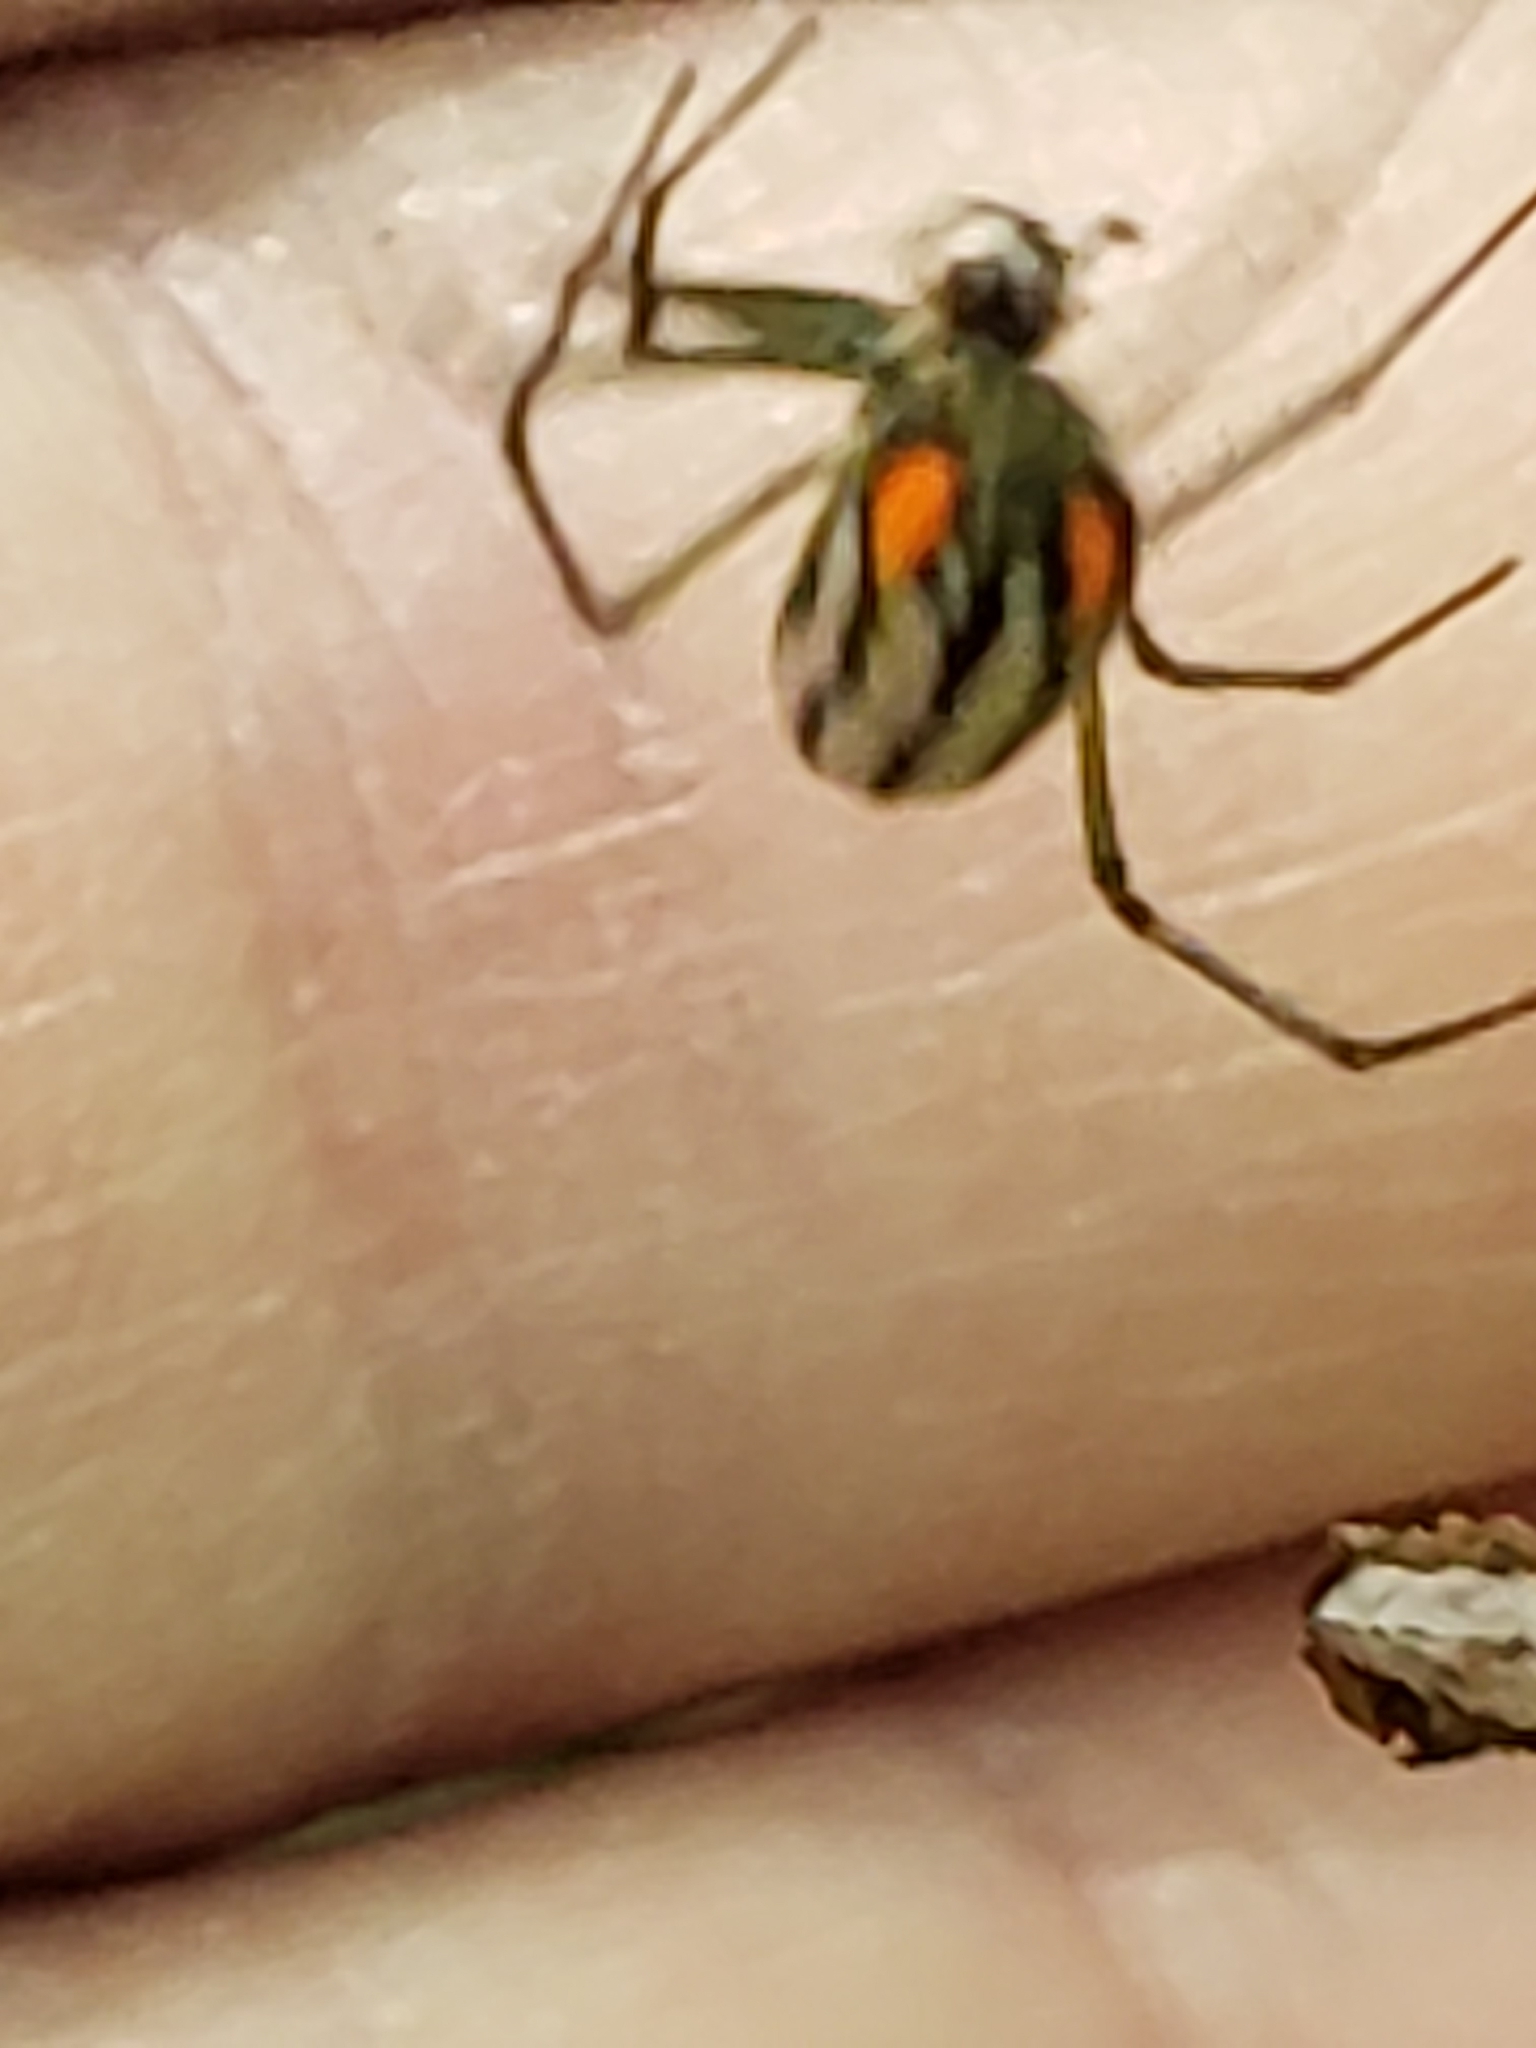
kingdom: Animalia
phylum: Arthropoda
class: Arachnida
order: Araneae
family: Tetragnathidae
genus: Leucauge
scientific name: Leucauge argyrobapta
